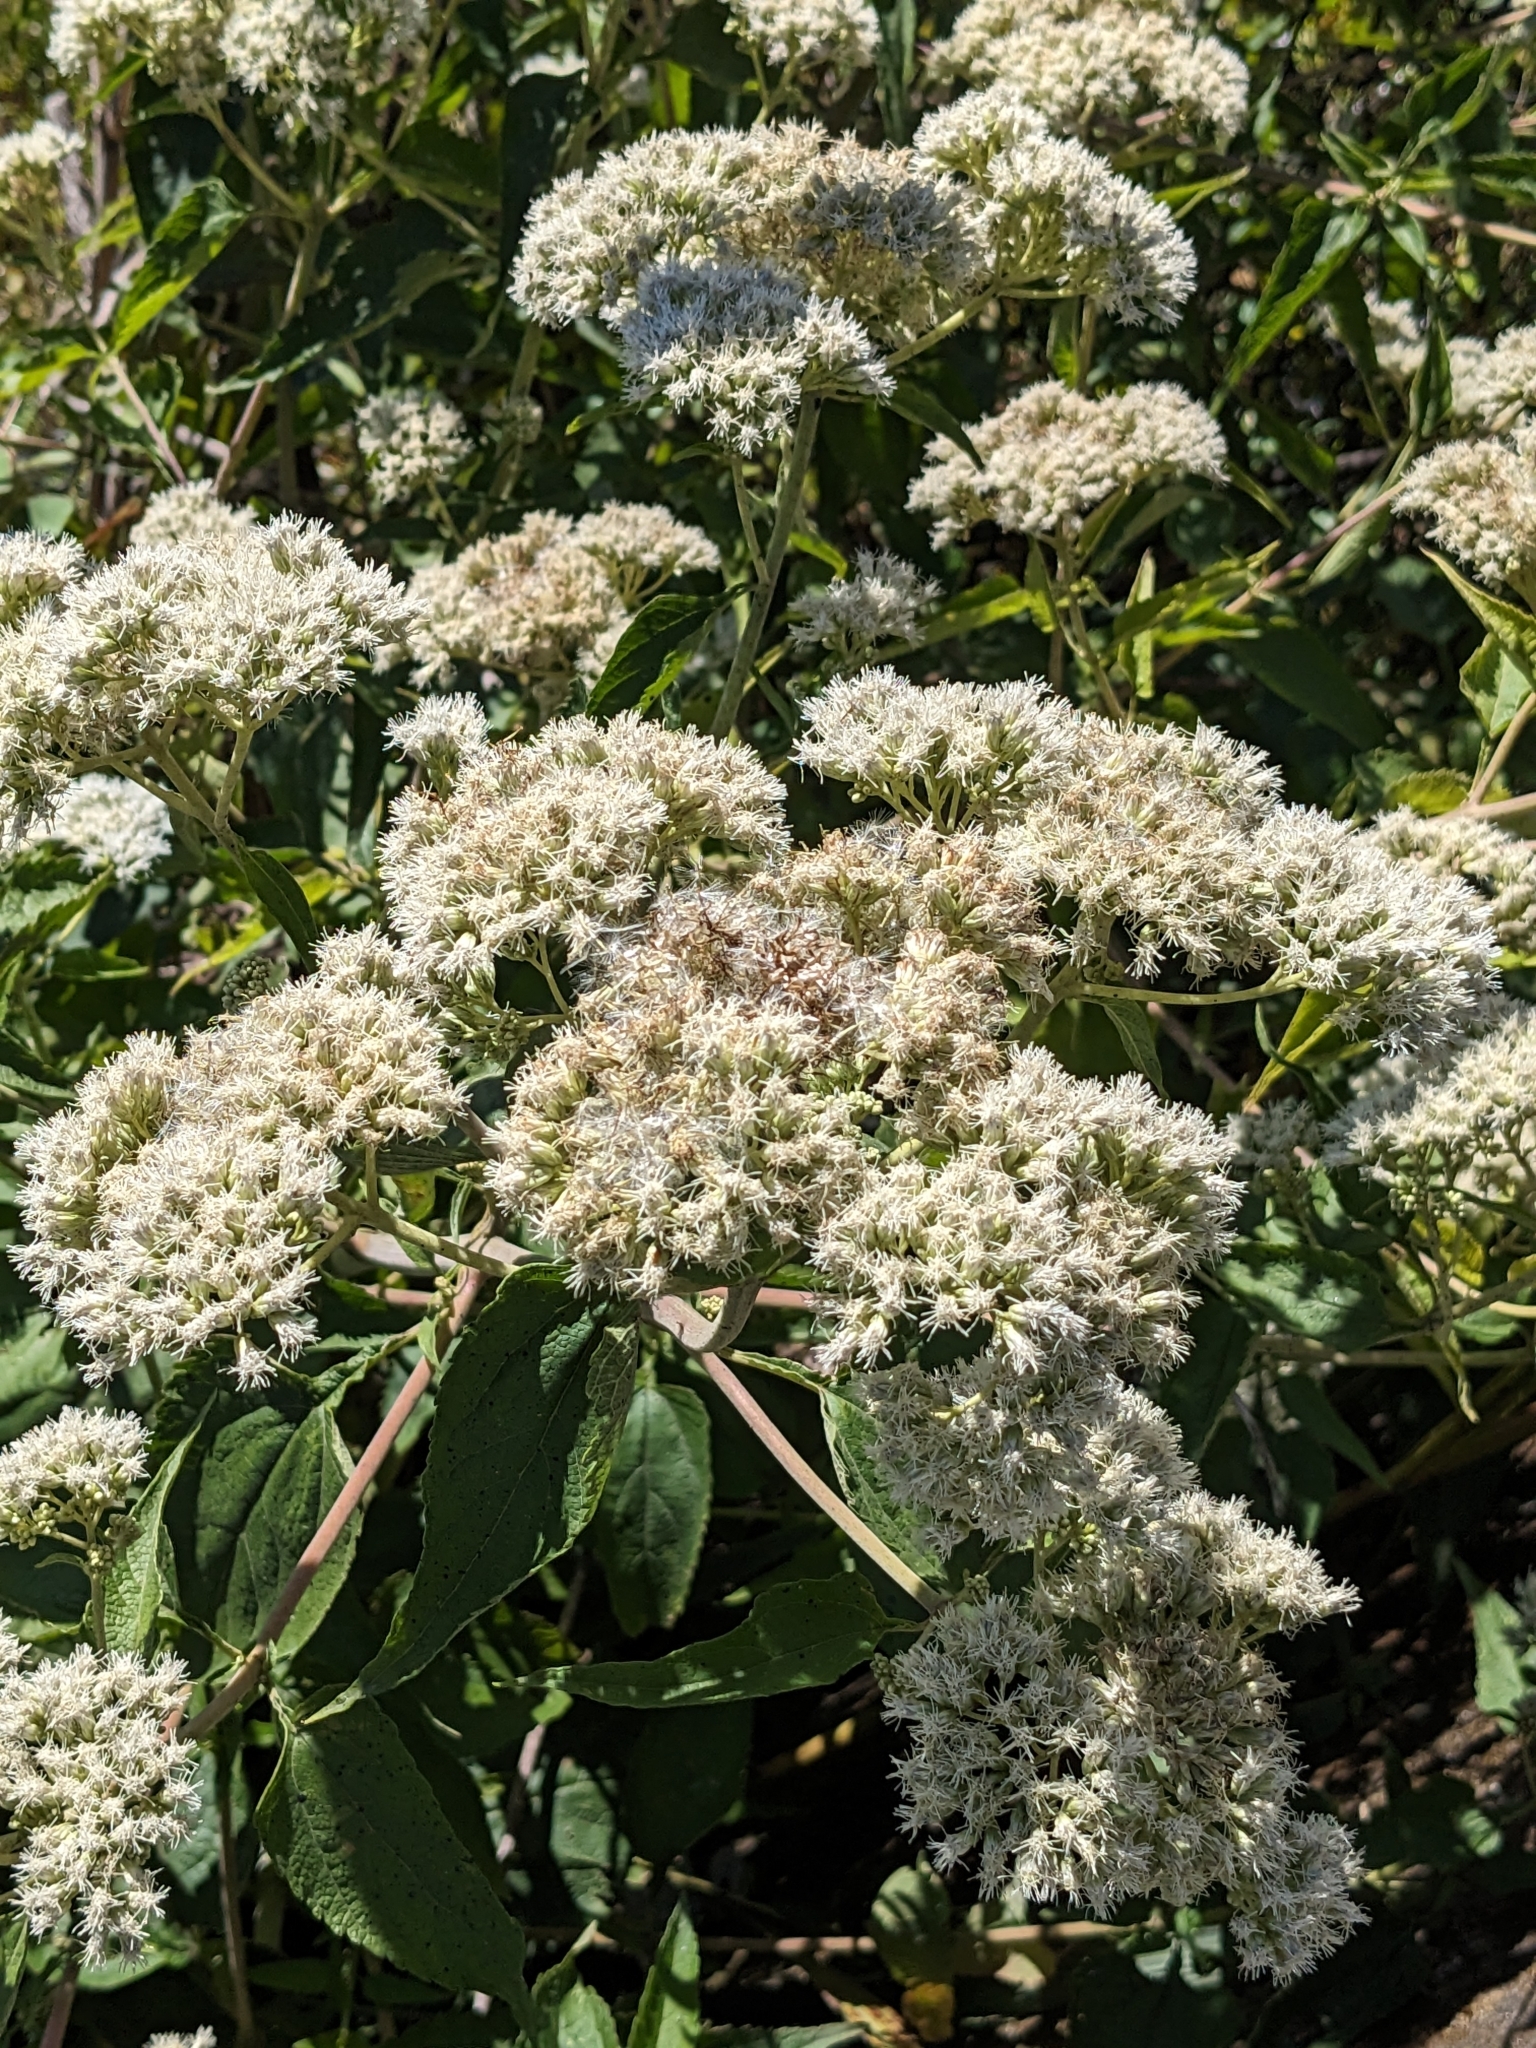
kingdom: Plantae
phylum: Tracheophyta
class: Magnoliopsida
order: Asterales
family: Asteraceae
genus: Austroeupatorium
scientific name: Austroeupatorium inulifolium
